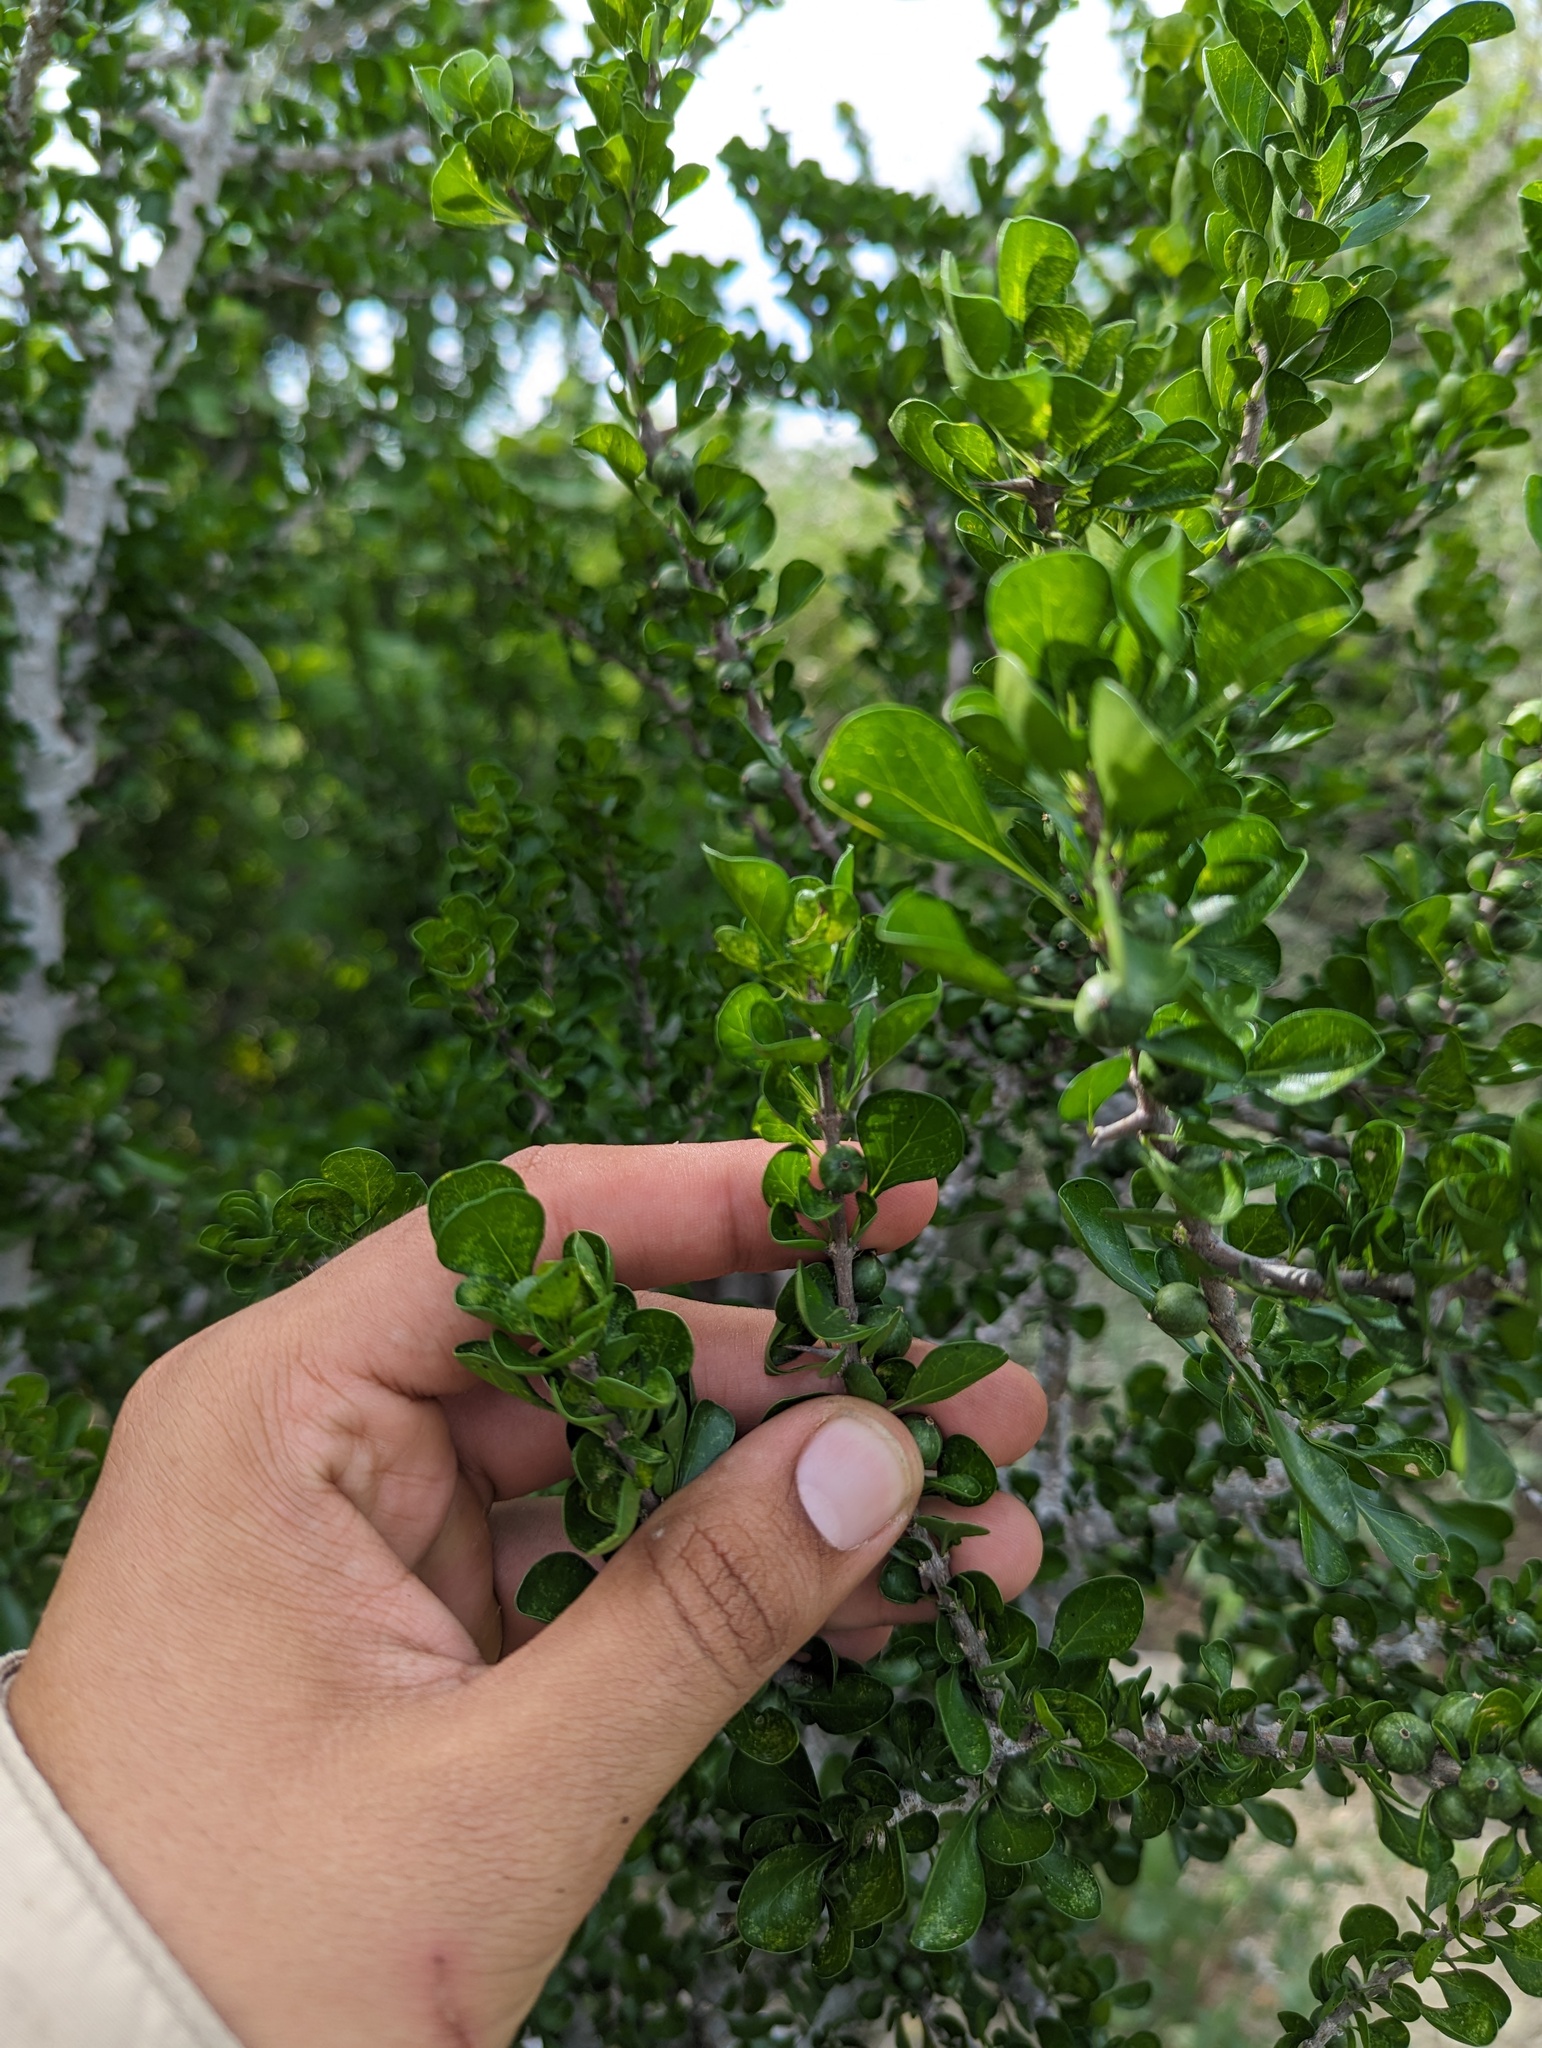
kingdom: Plantae
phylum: Tracheophyta
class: Magnoliopsida
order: Gentianales
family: Rubiaceae
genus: Randia
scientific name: Randia obcordata
